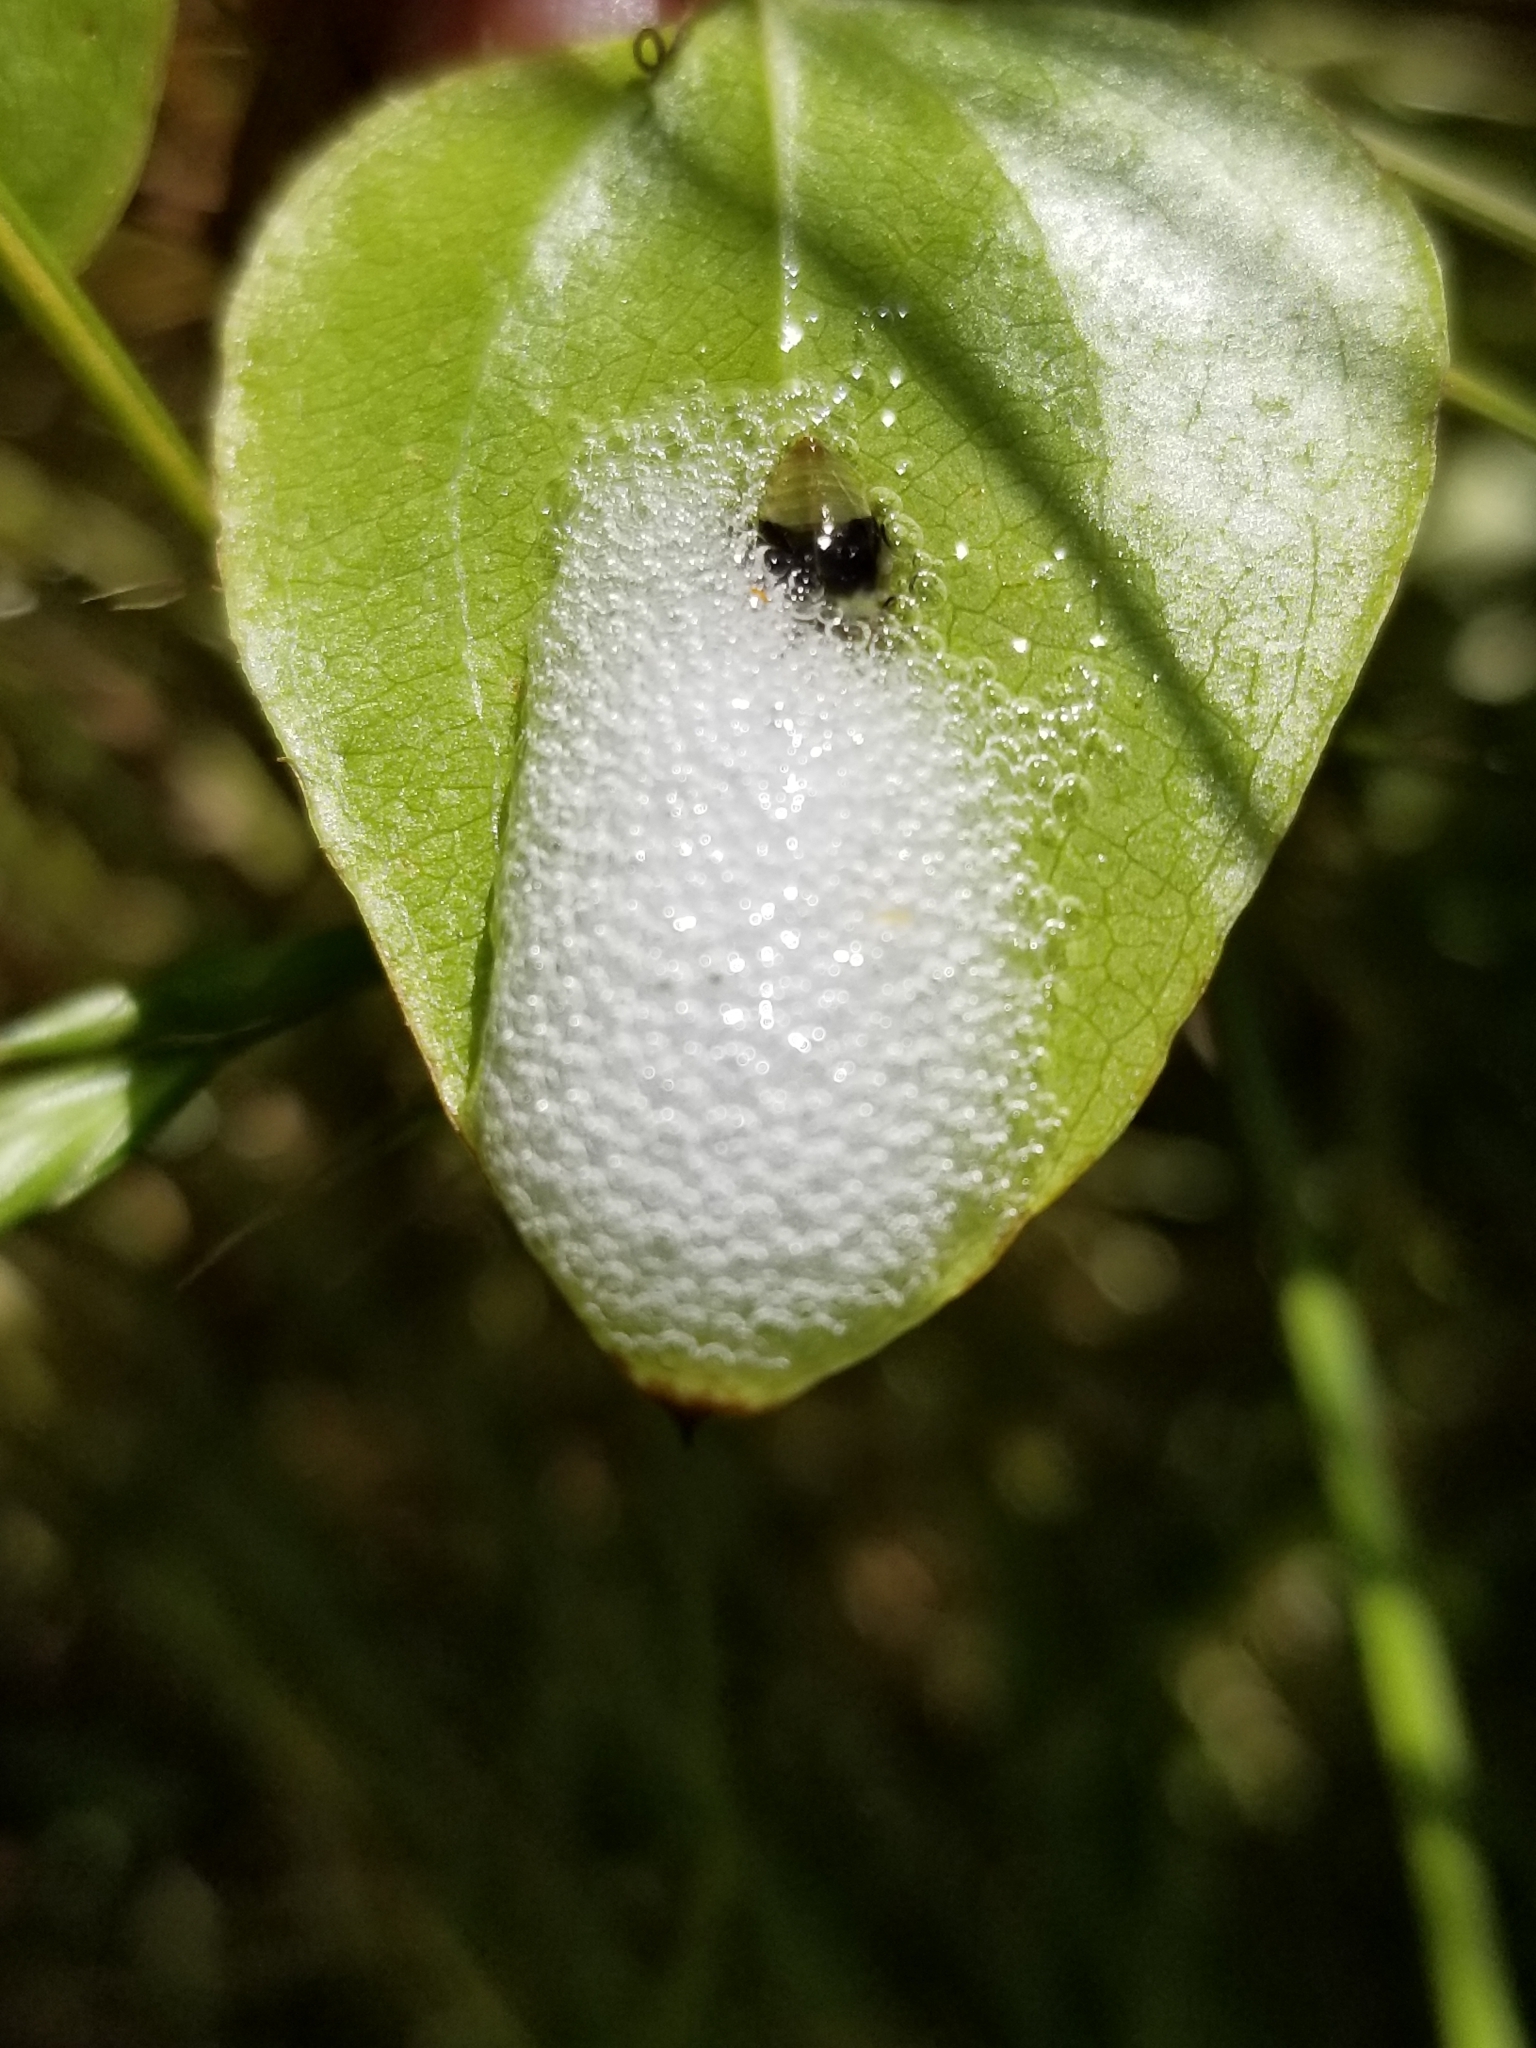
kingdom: Animalia
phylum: Arthropoda
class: Insecta
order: Hemiptera
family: Aphrophoridae
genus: Philaenus
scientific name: Philaenus spumarius
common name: Meadow spittlebug
